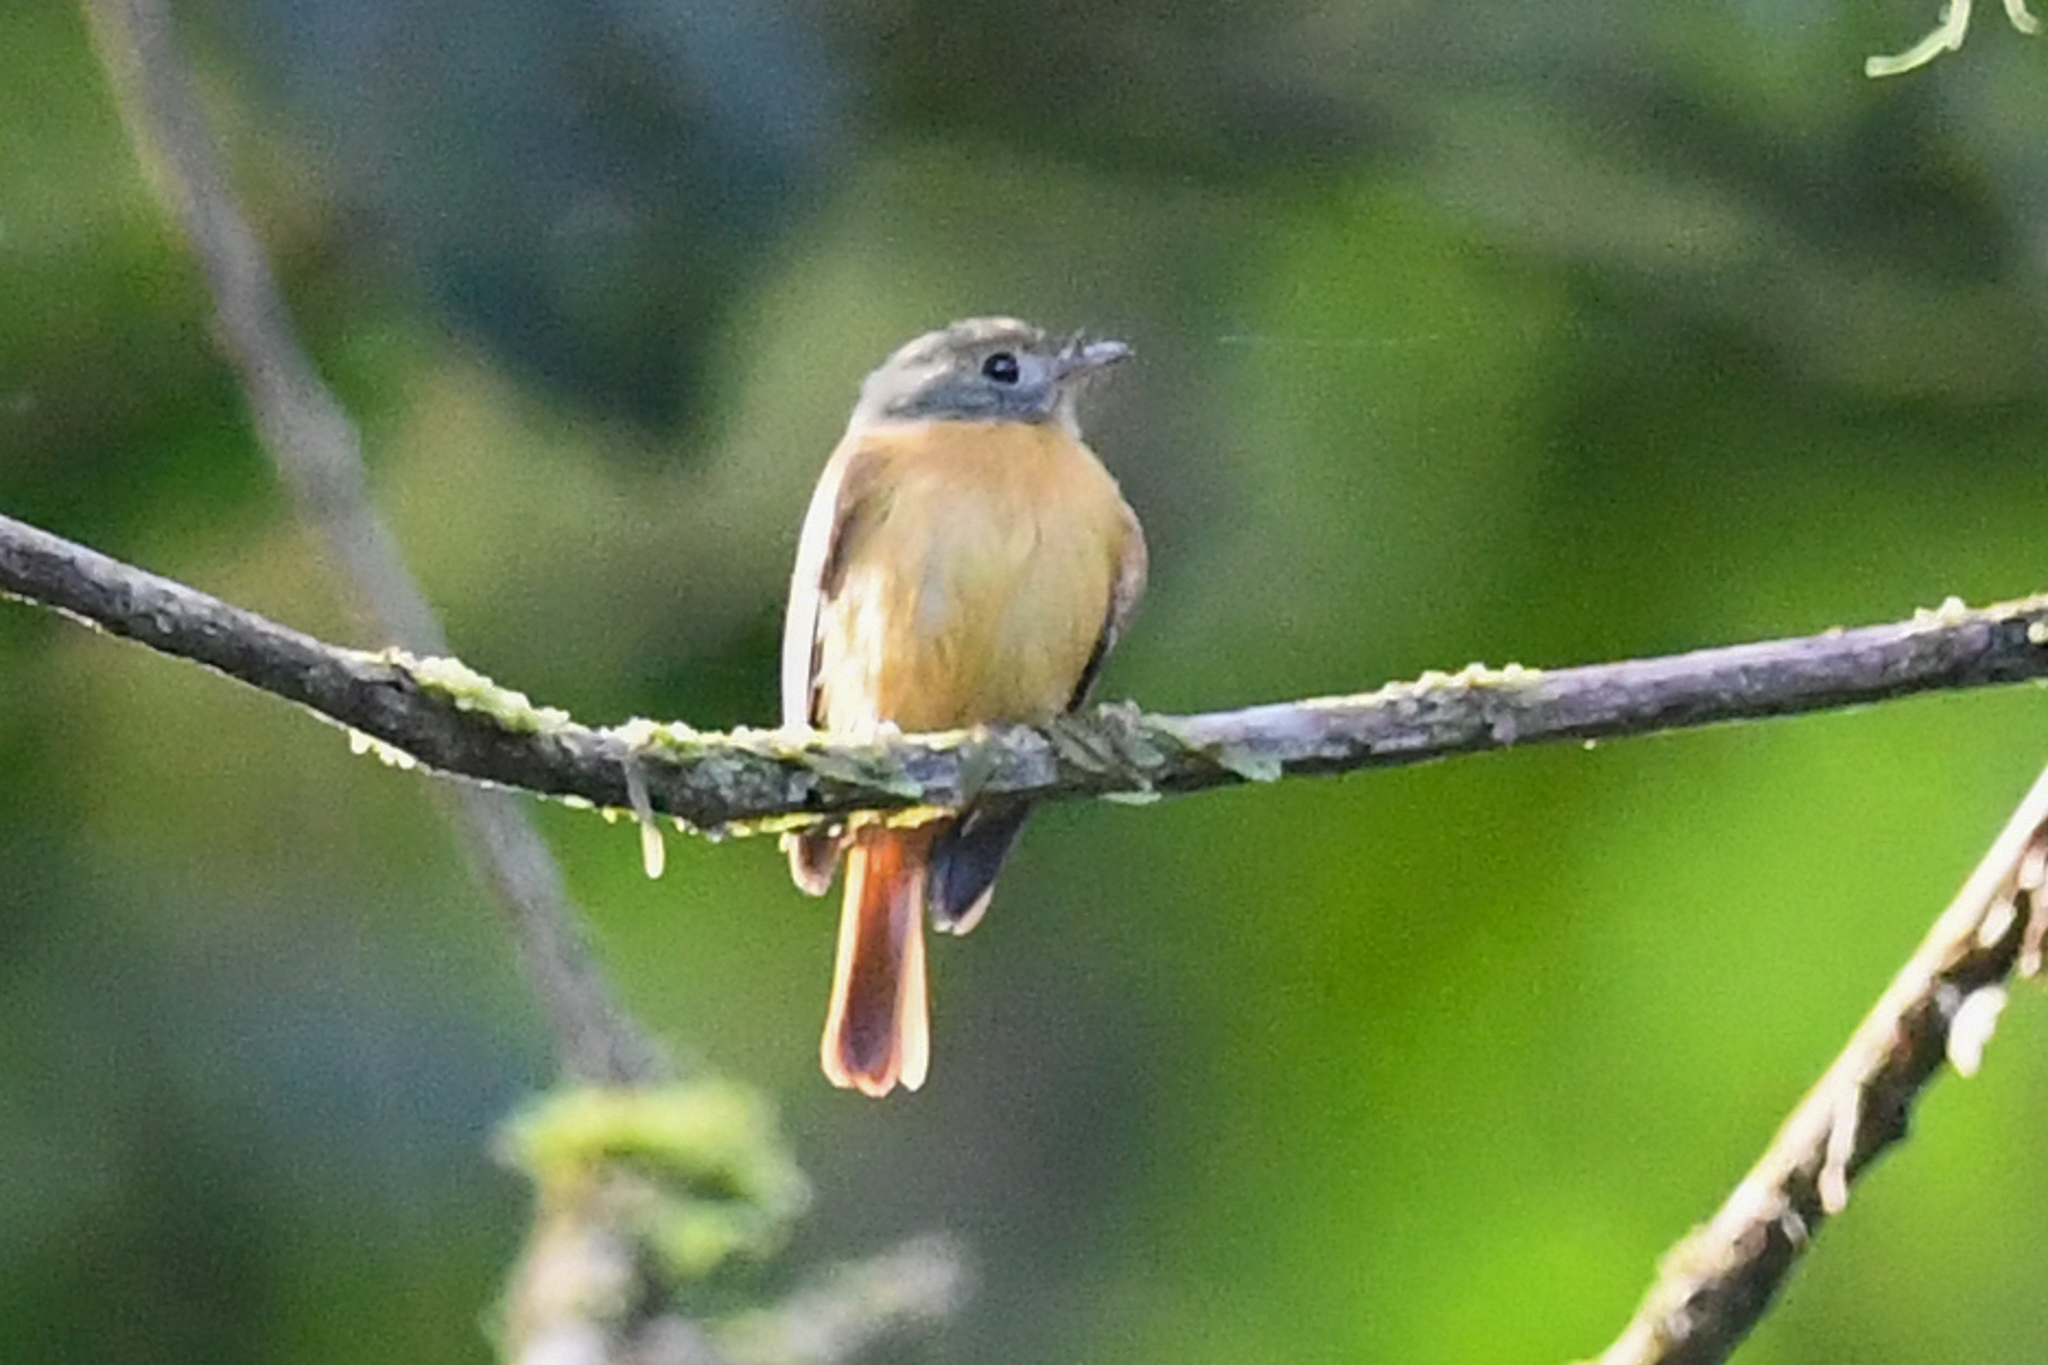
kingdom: Animalia
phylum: Chordata
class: Aves
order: Passeriformes
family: Tyrannidae
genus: Terenotriccus
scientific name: Terenotriccus erythrurus
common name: Ruddy-tailed flycatcher
